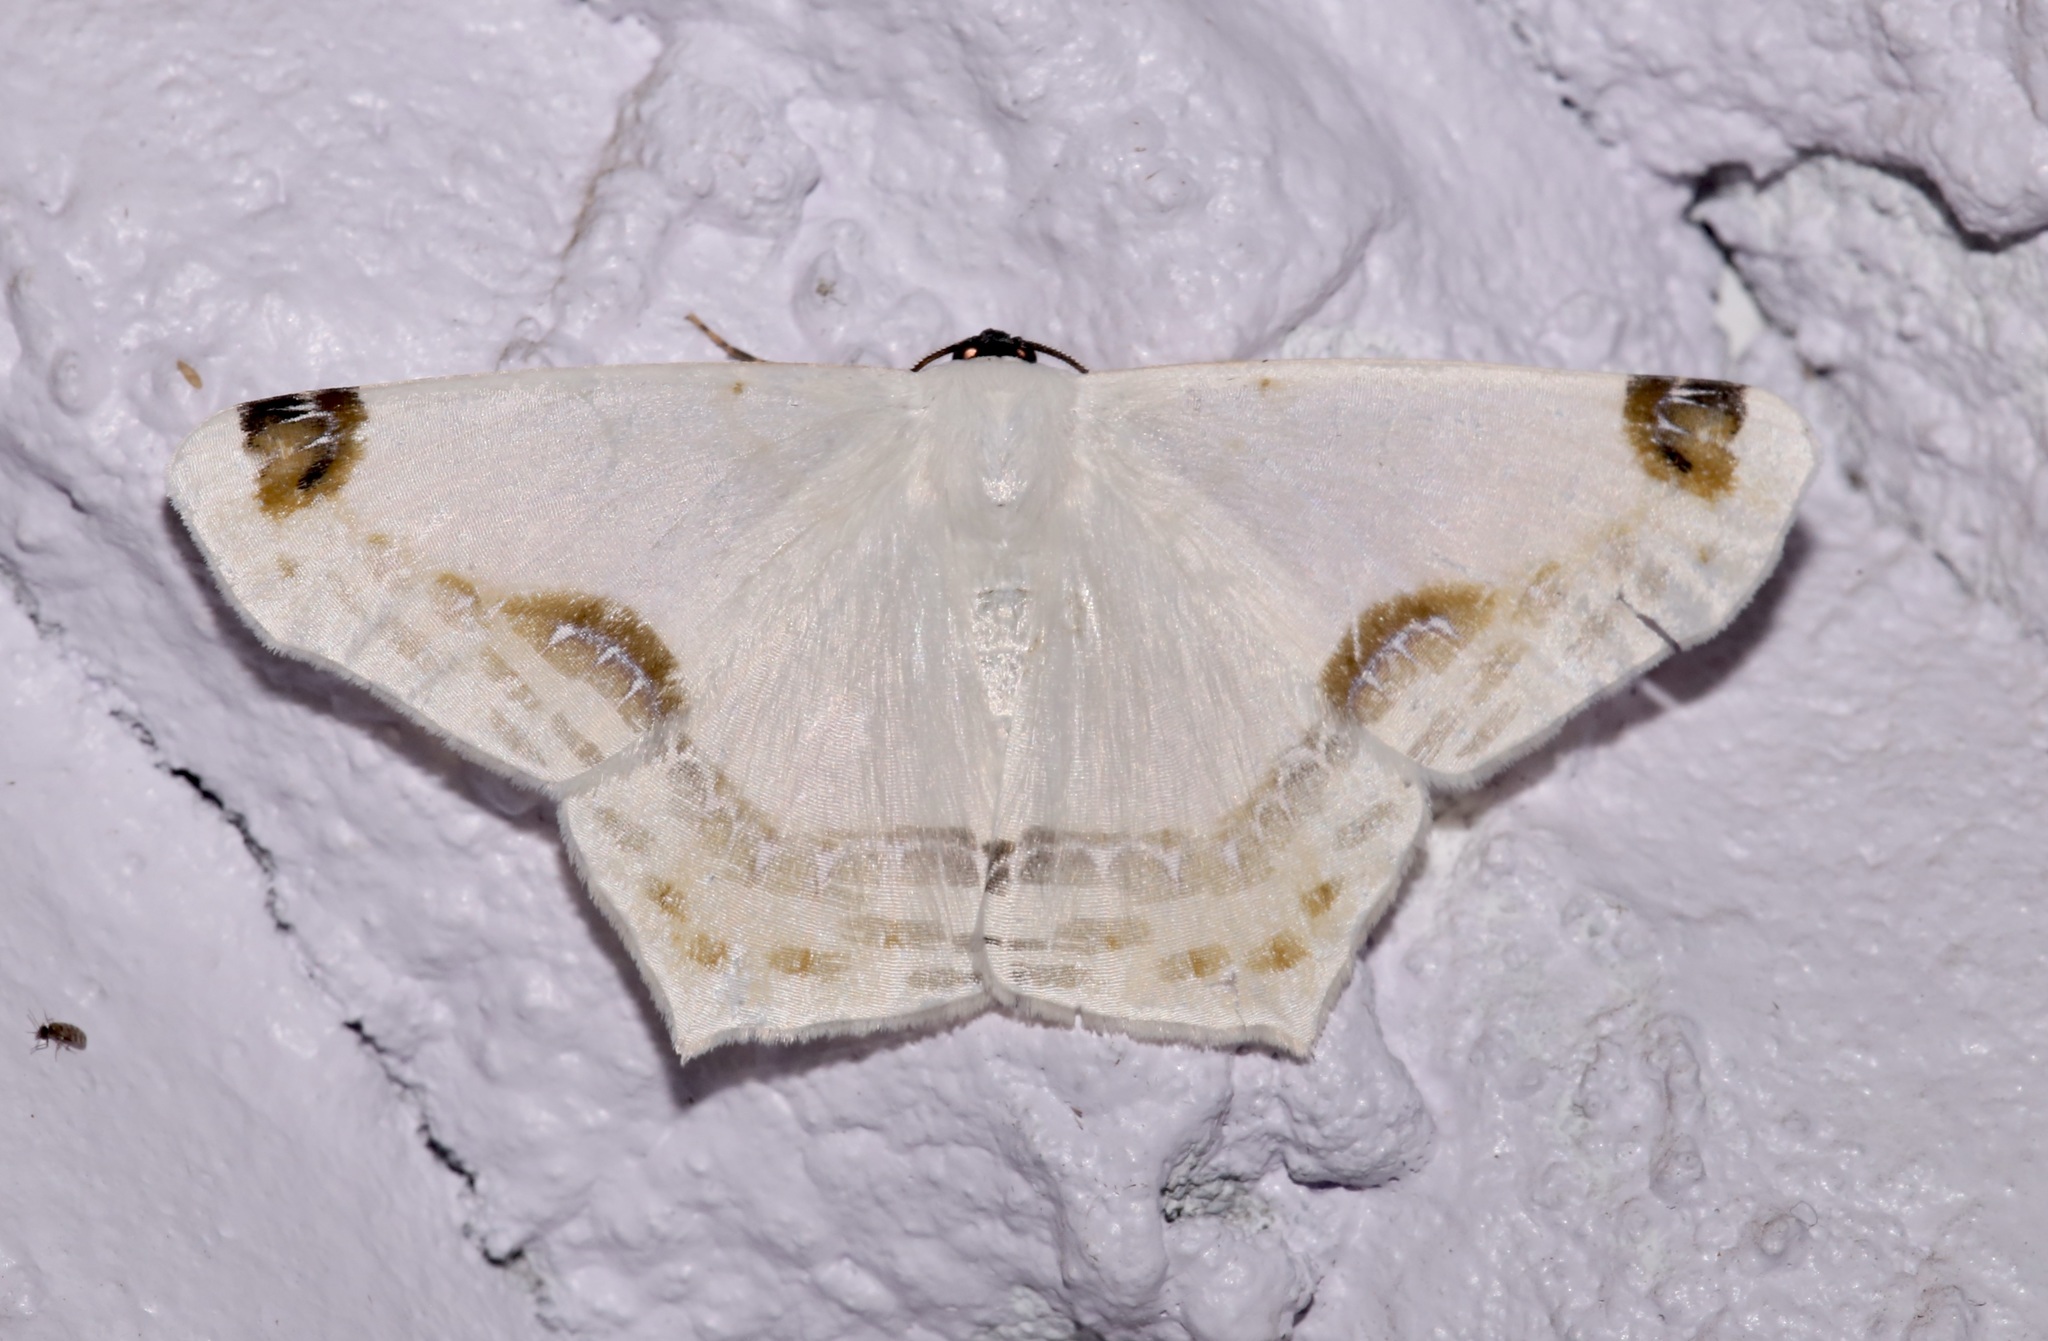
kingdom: Animalia
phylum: Arthropoda
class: Insecta
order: Lepidoptera
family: Geometridae
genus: Sericoptera
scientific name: Sericoptera mahometaria
